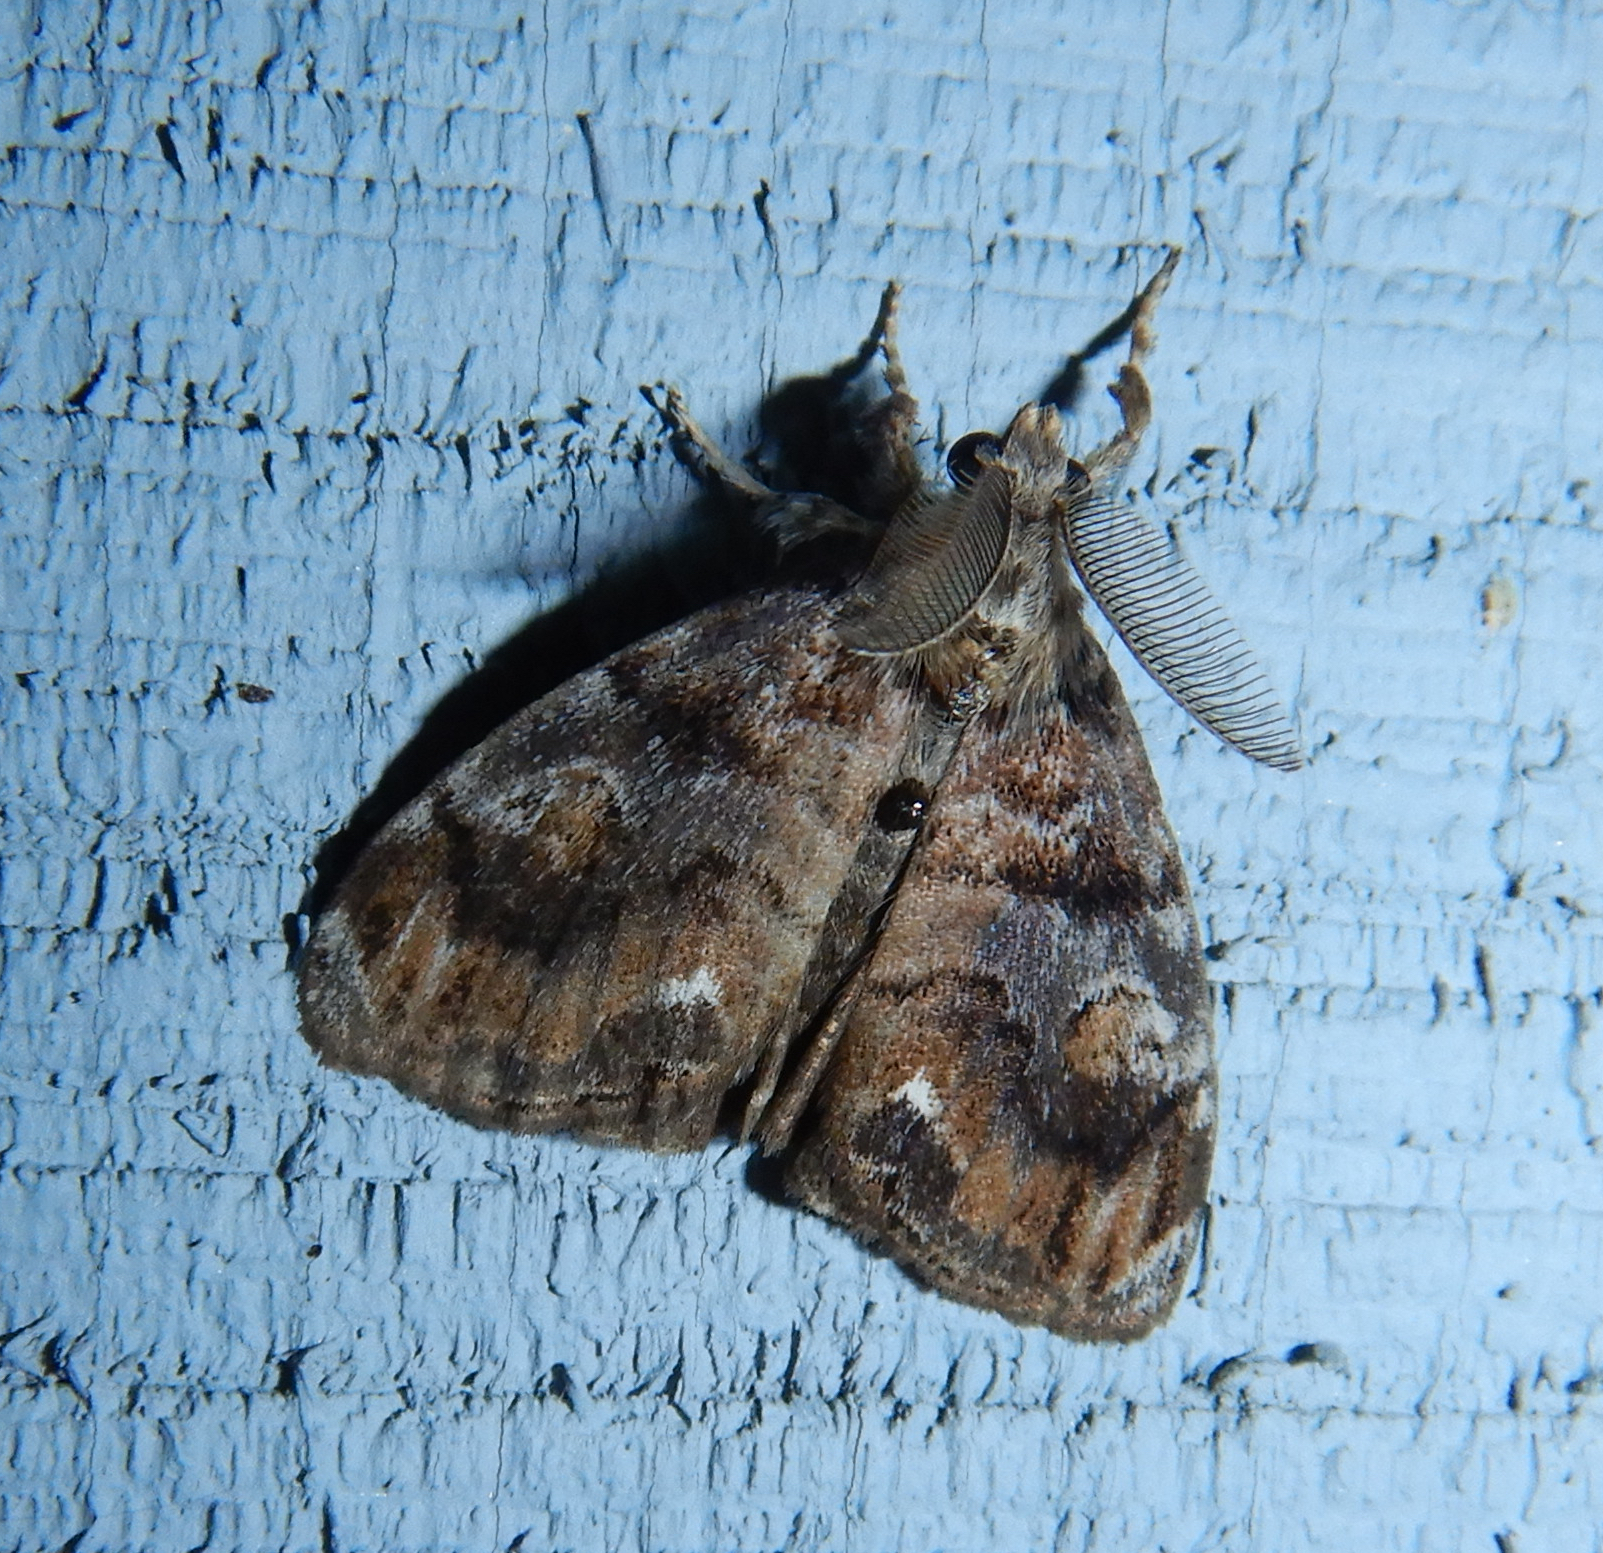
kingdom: Animalia
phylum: Arthropoda
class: Insecta
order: Lepidoptera
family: Erebidae
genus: Orgyia
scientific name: Orgyia definita
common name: Definite tussock moth
